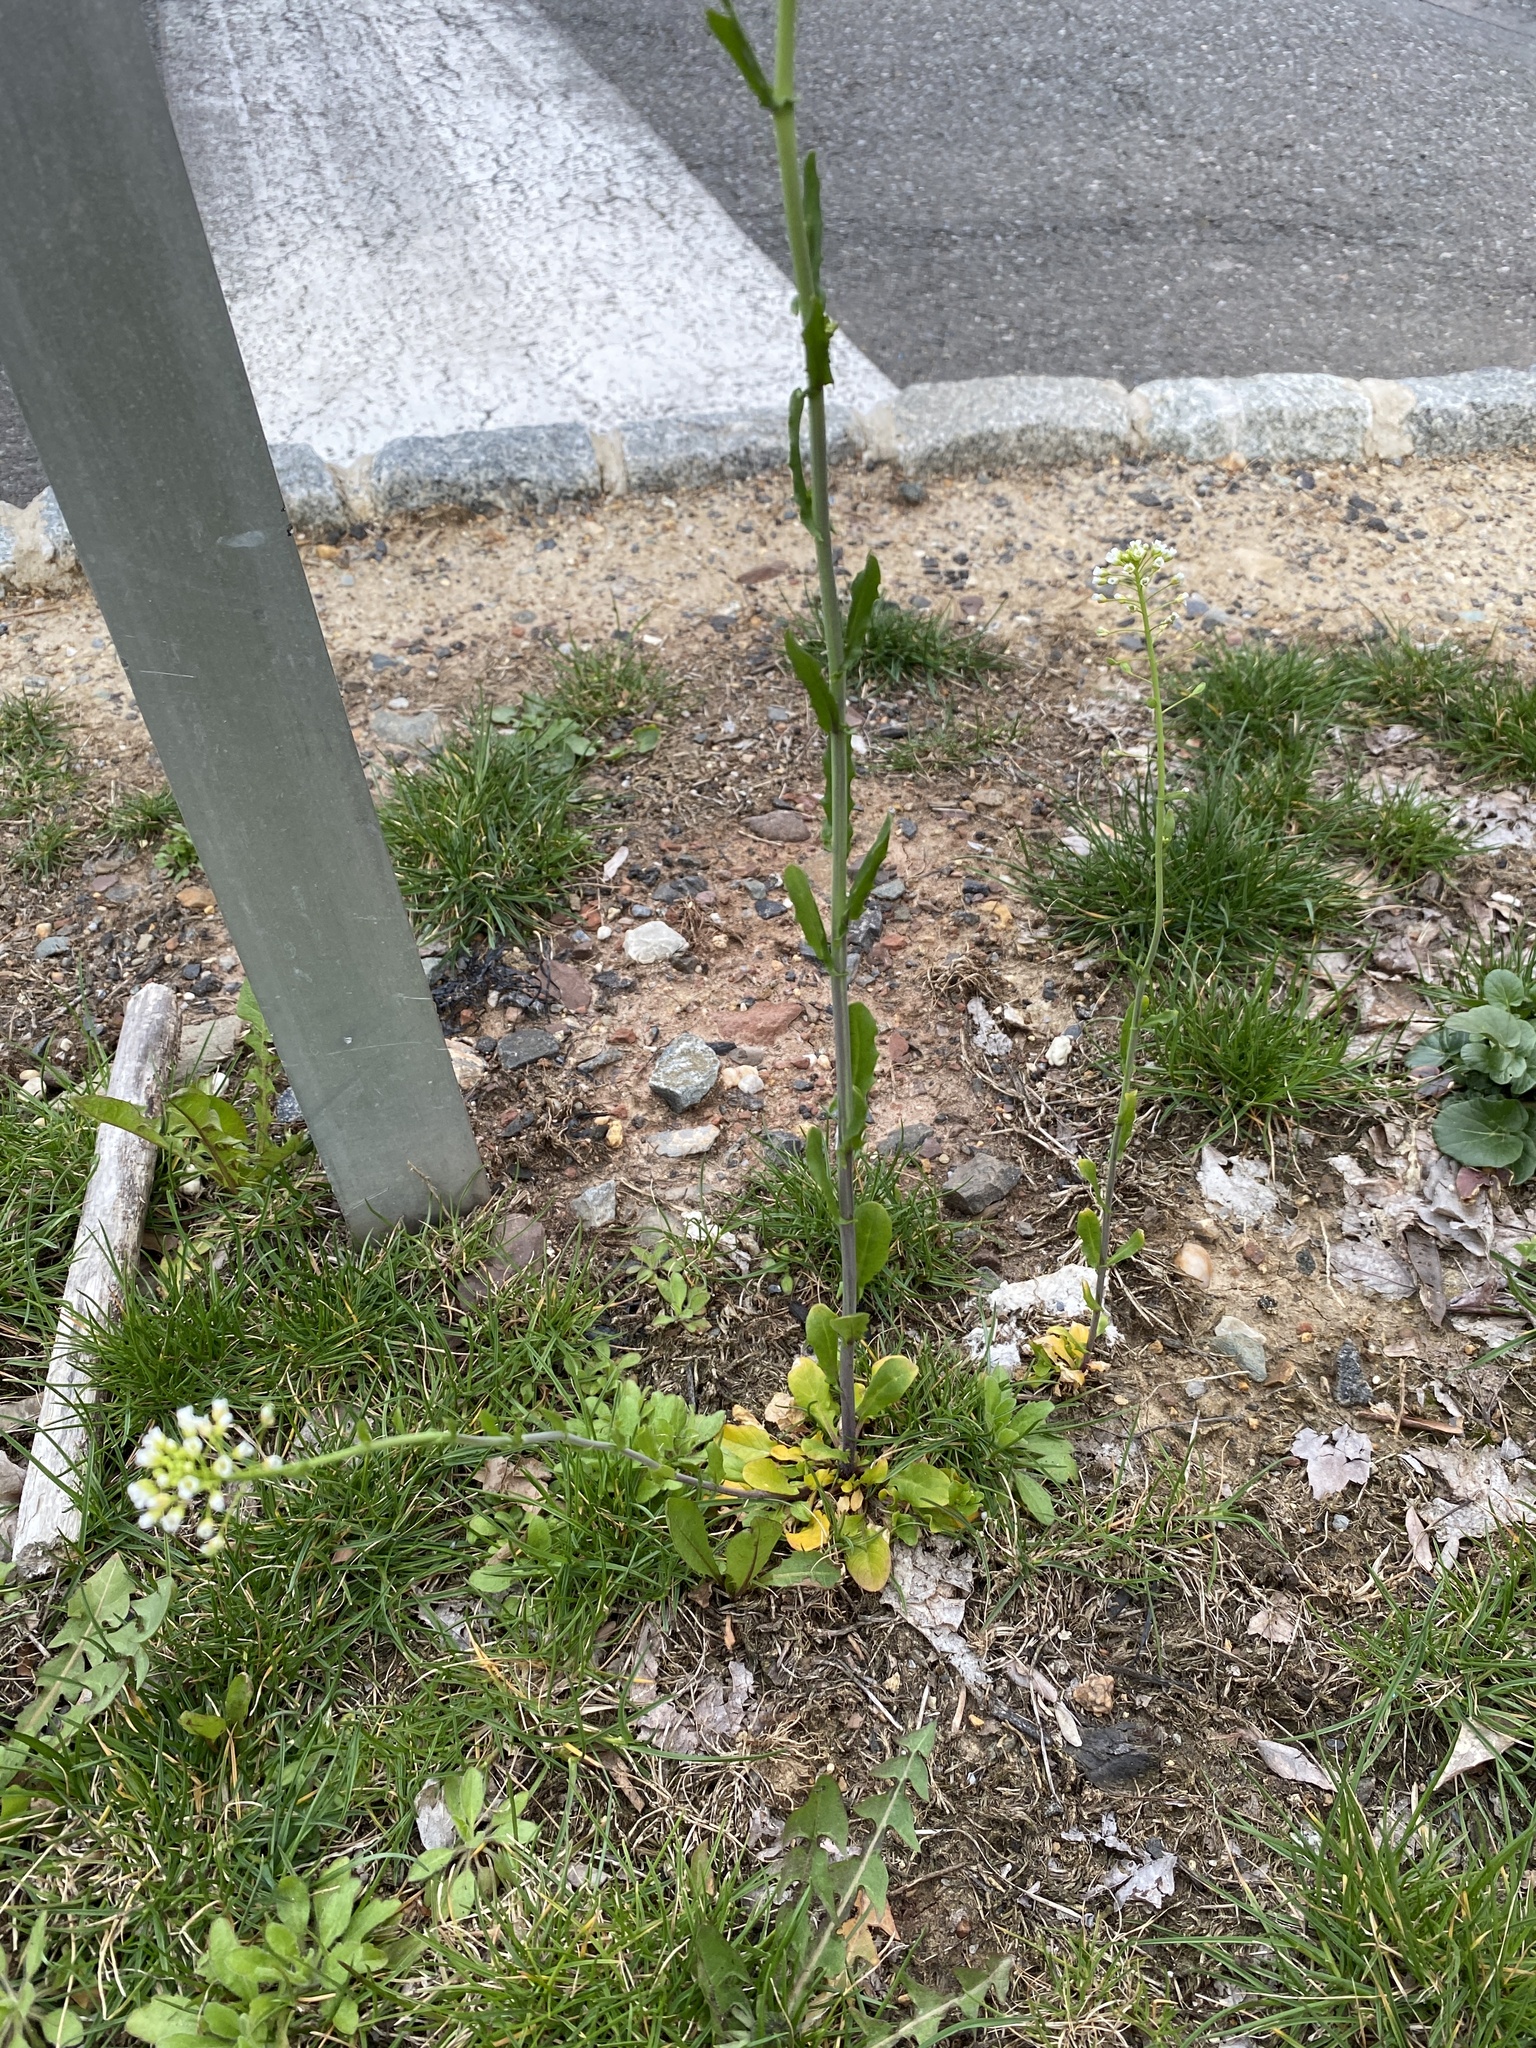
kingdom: Plantae
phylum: Tracheophyta
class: Magnoliopsida
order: Brassicales
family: Brassicaceae
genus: Mummenhoffia
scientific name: Mummenhoffia alliacea
